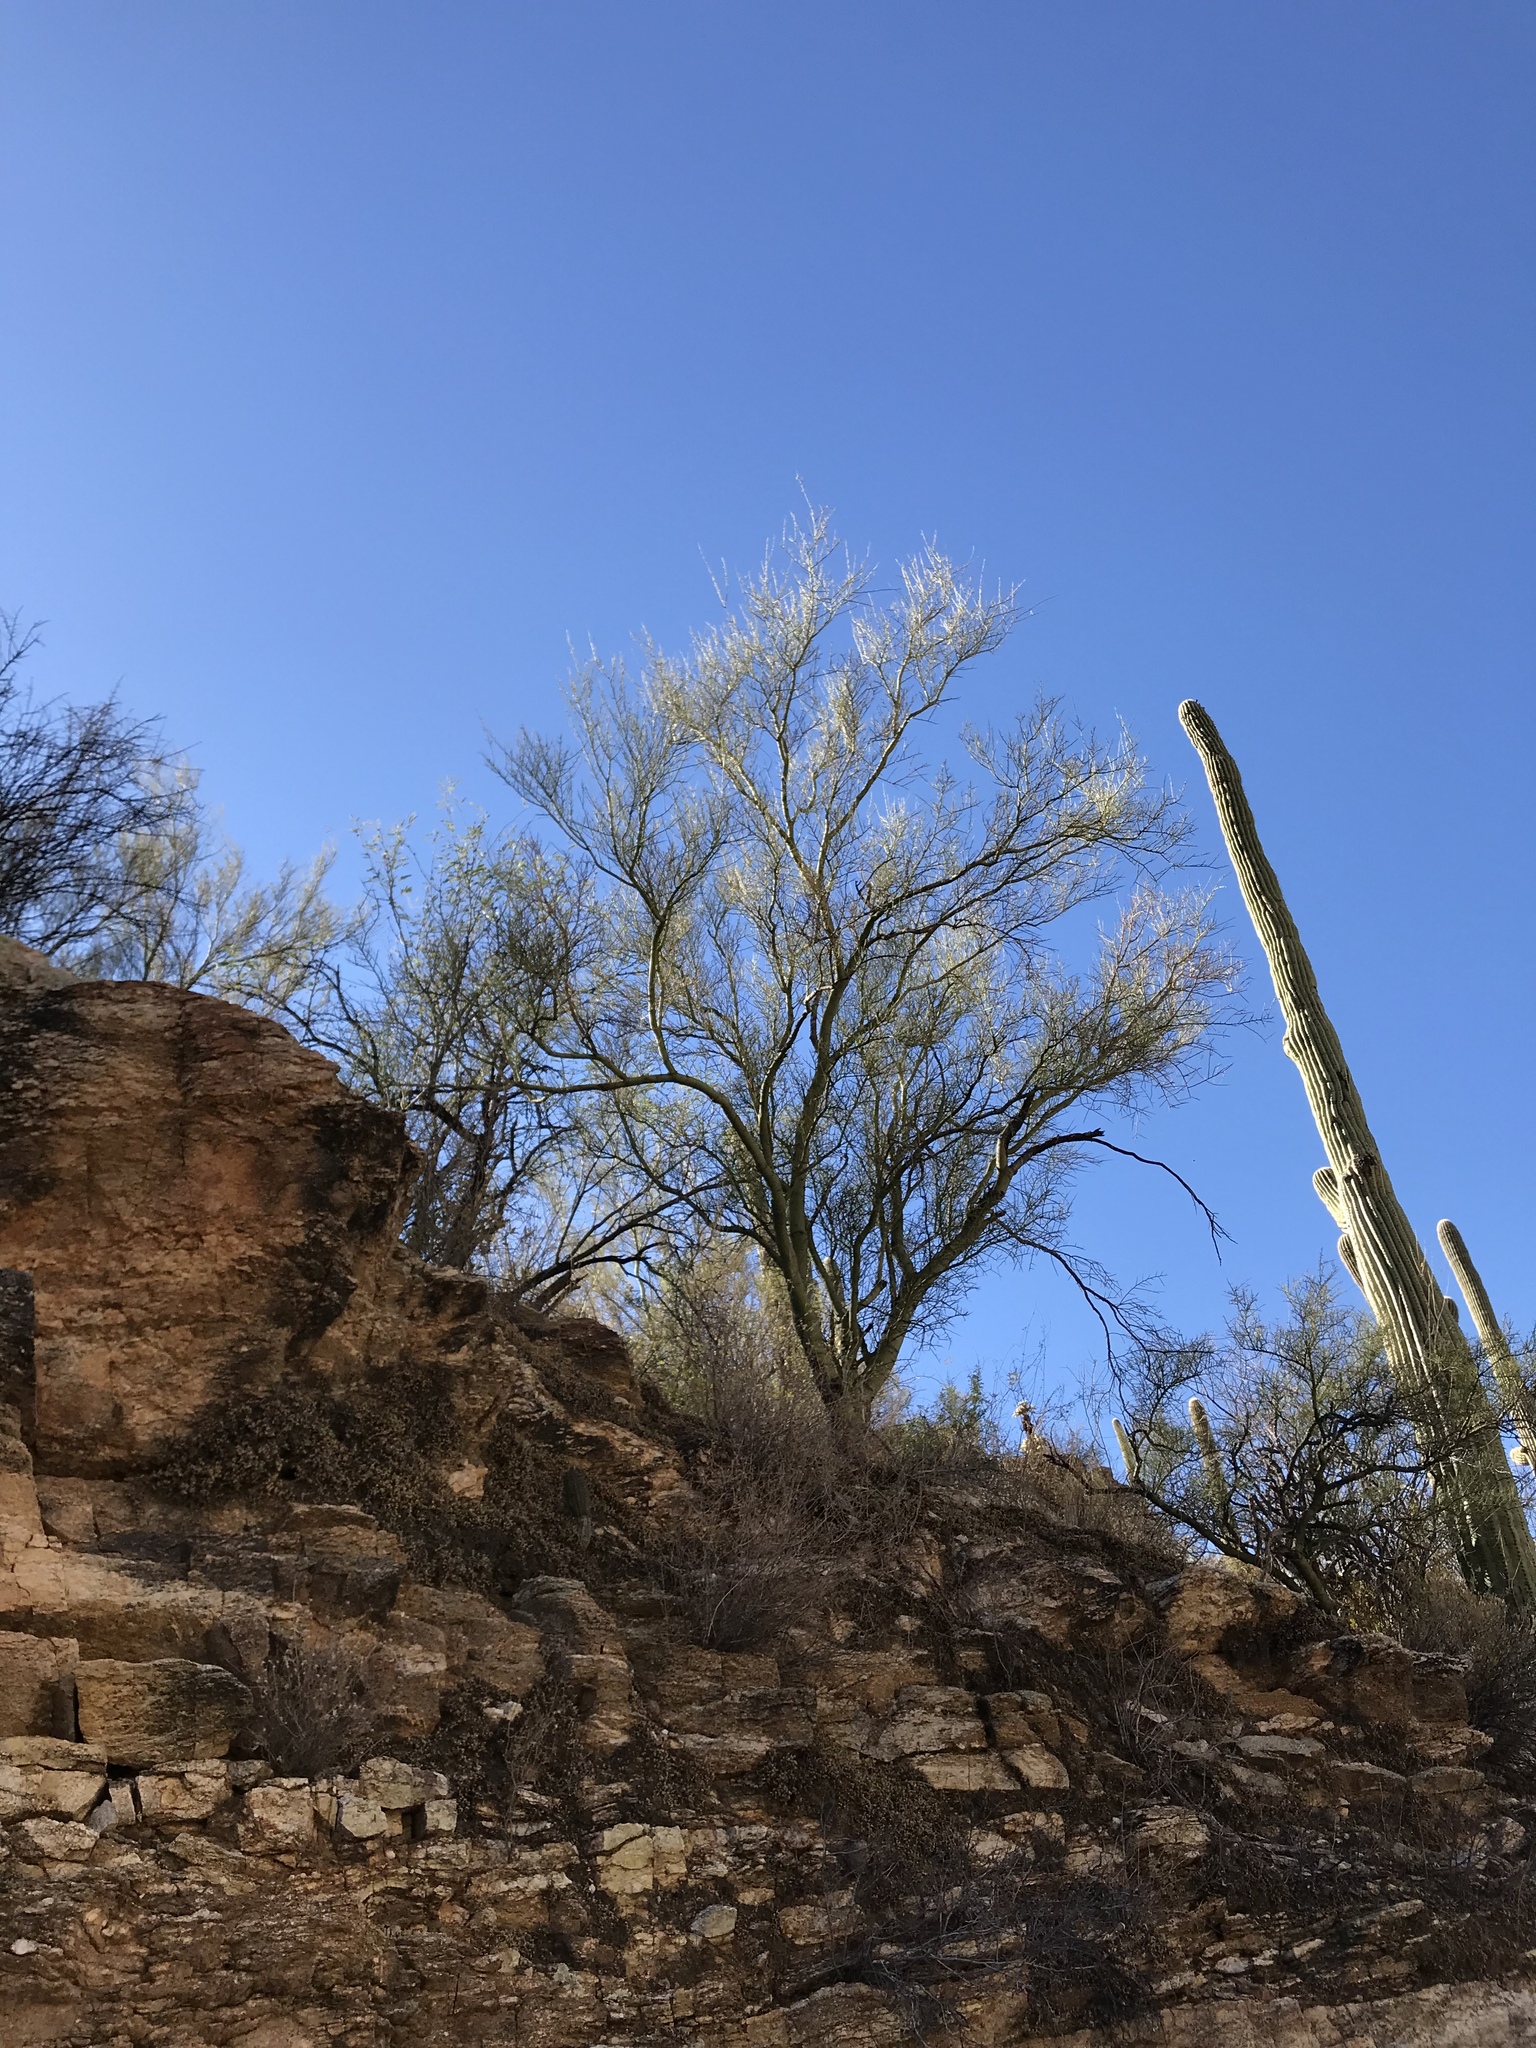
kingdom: Plantae
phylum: Tracheophyta
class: Magnoliopsida
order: Fabales
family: Fabaceae
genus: Parkinsonia
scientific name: Parkinsonia microphylla
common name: Yellow paloverde
